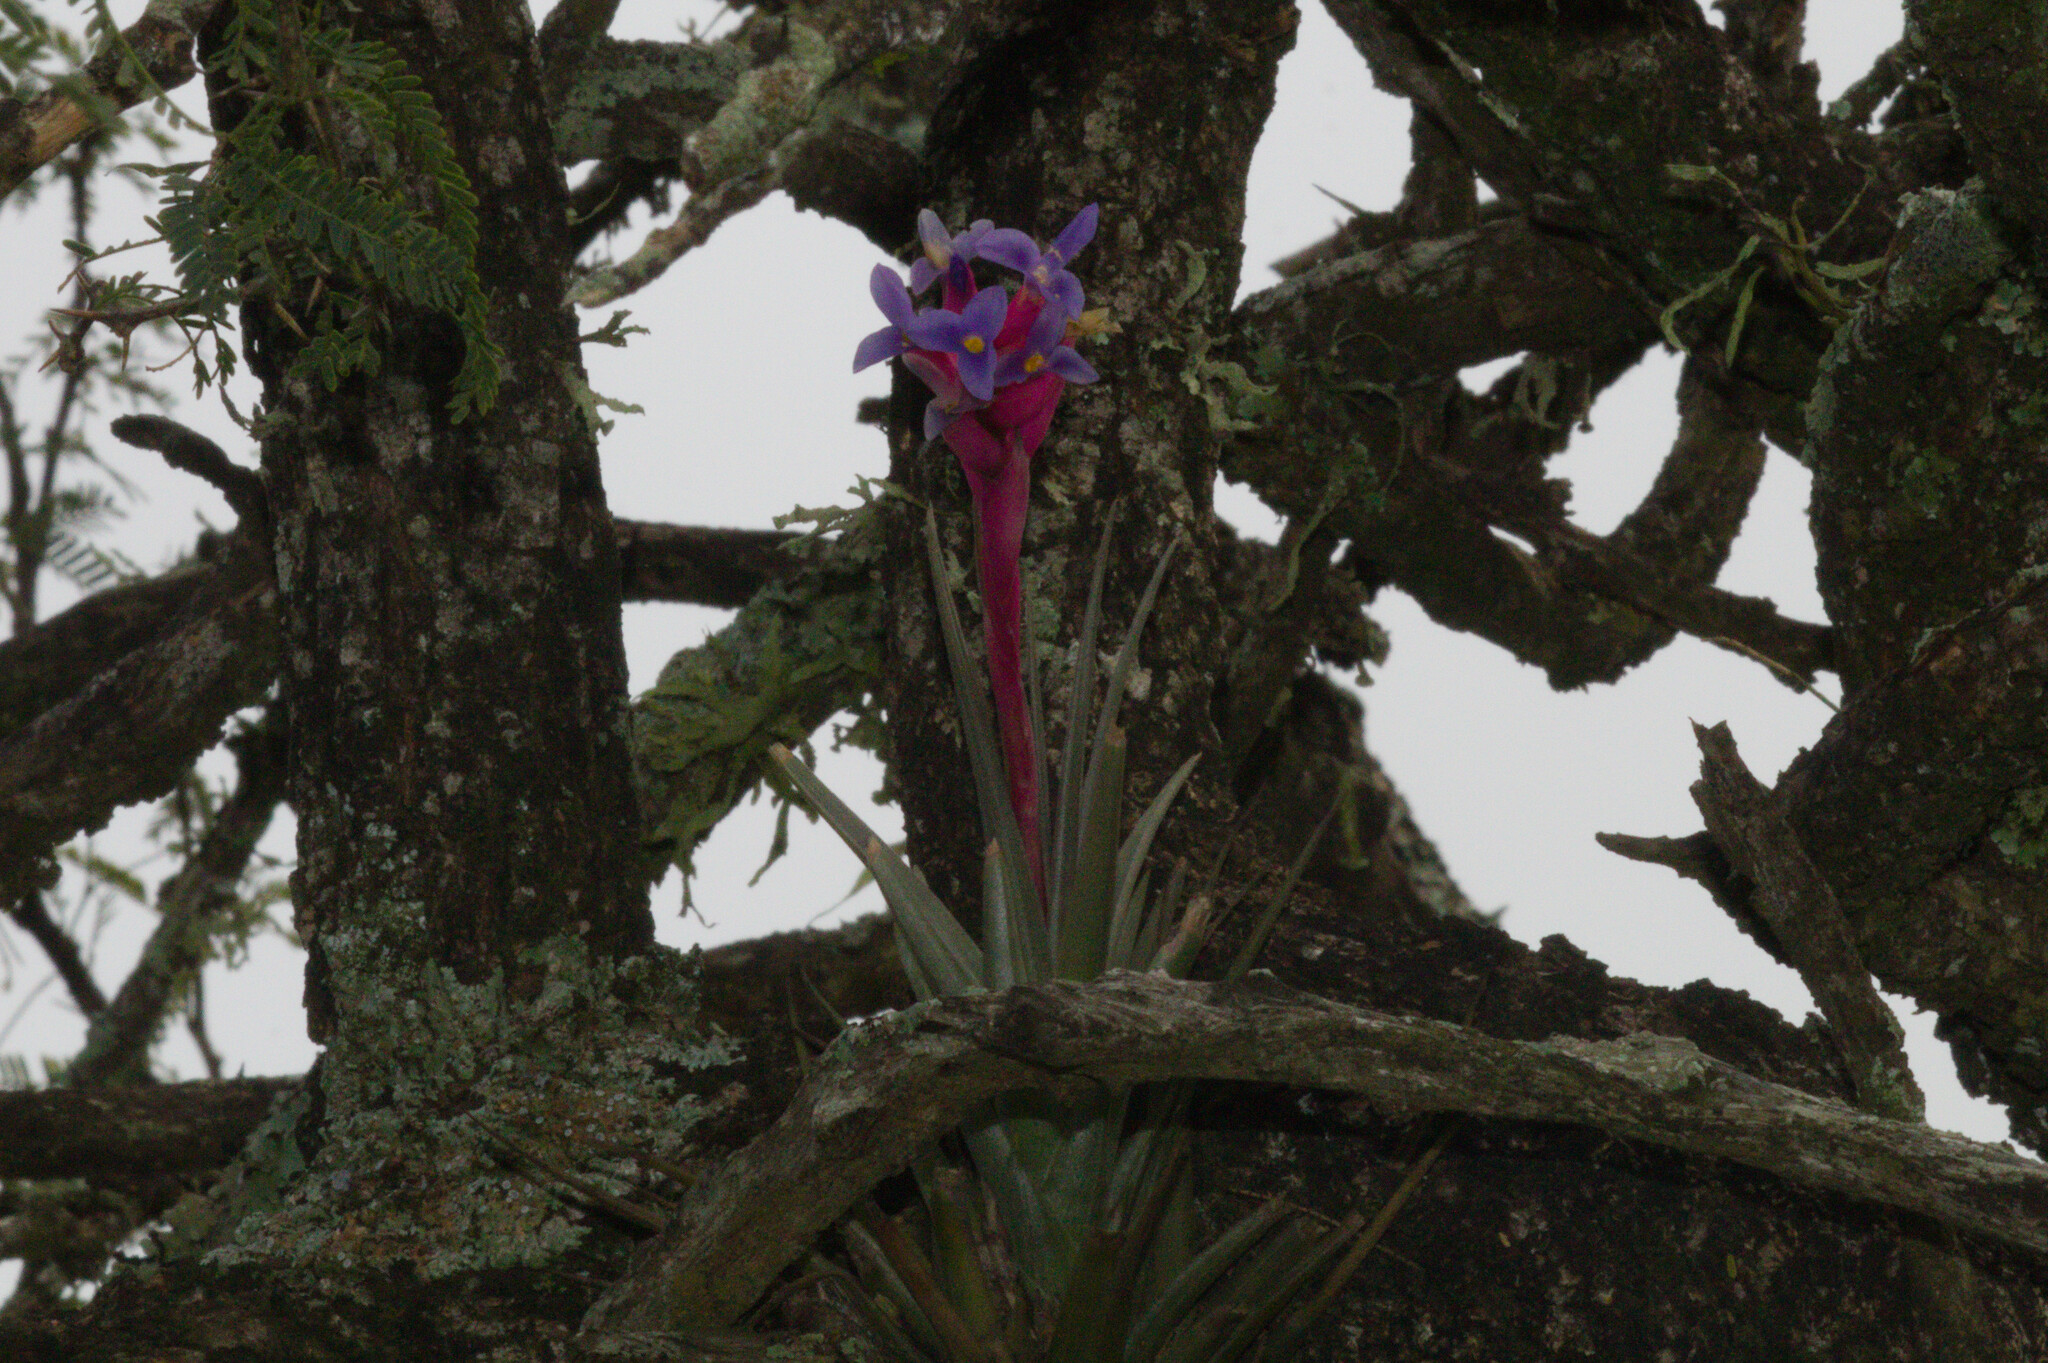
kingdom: Plantae
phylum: Tracheophyta
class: Liliopsida
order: Poales
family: Bromeliaceae
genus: Tillandsia
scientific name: Tillandsia aeranthos
